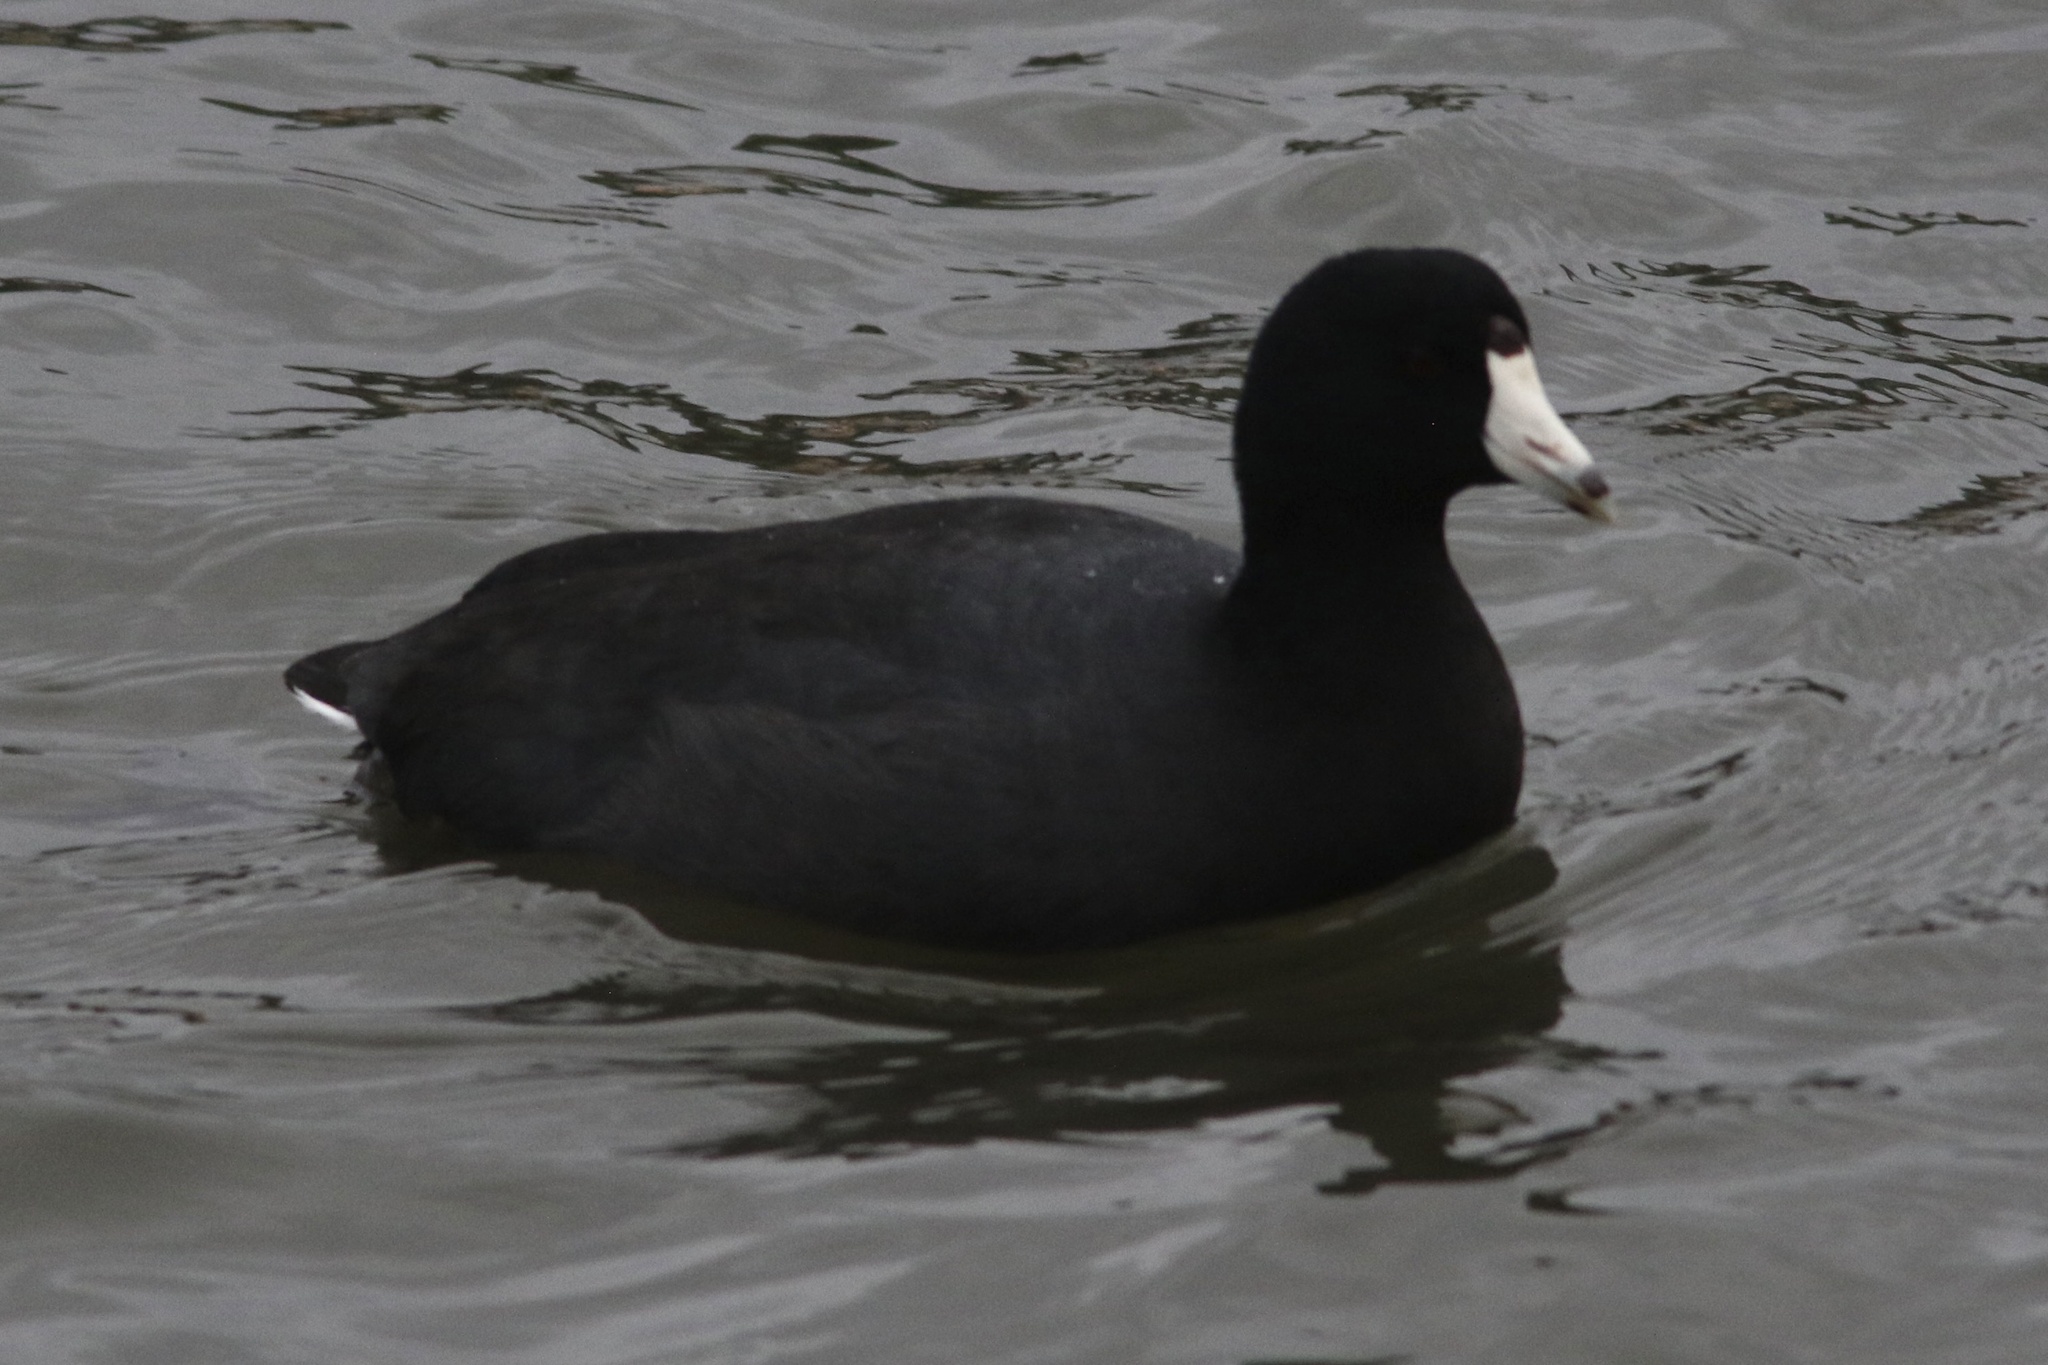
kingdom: Animalia
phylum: Chordata
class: Aves
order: Gruiformes
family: Rallidae
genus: Fulica
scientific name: Fulica americana
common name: American coot
